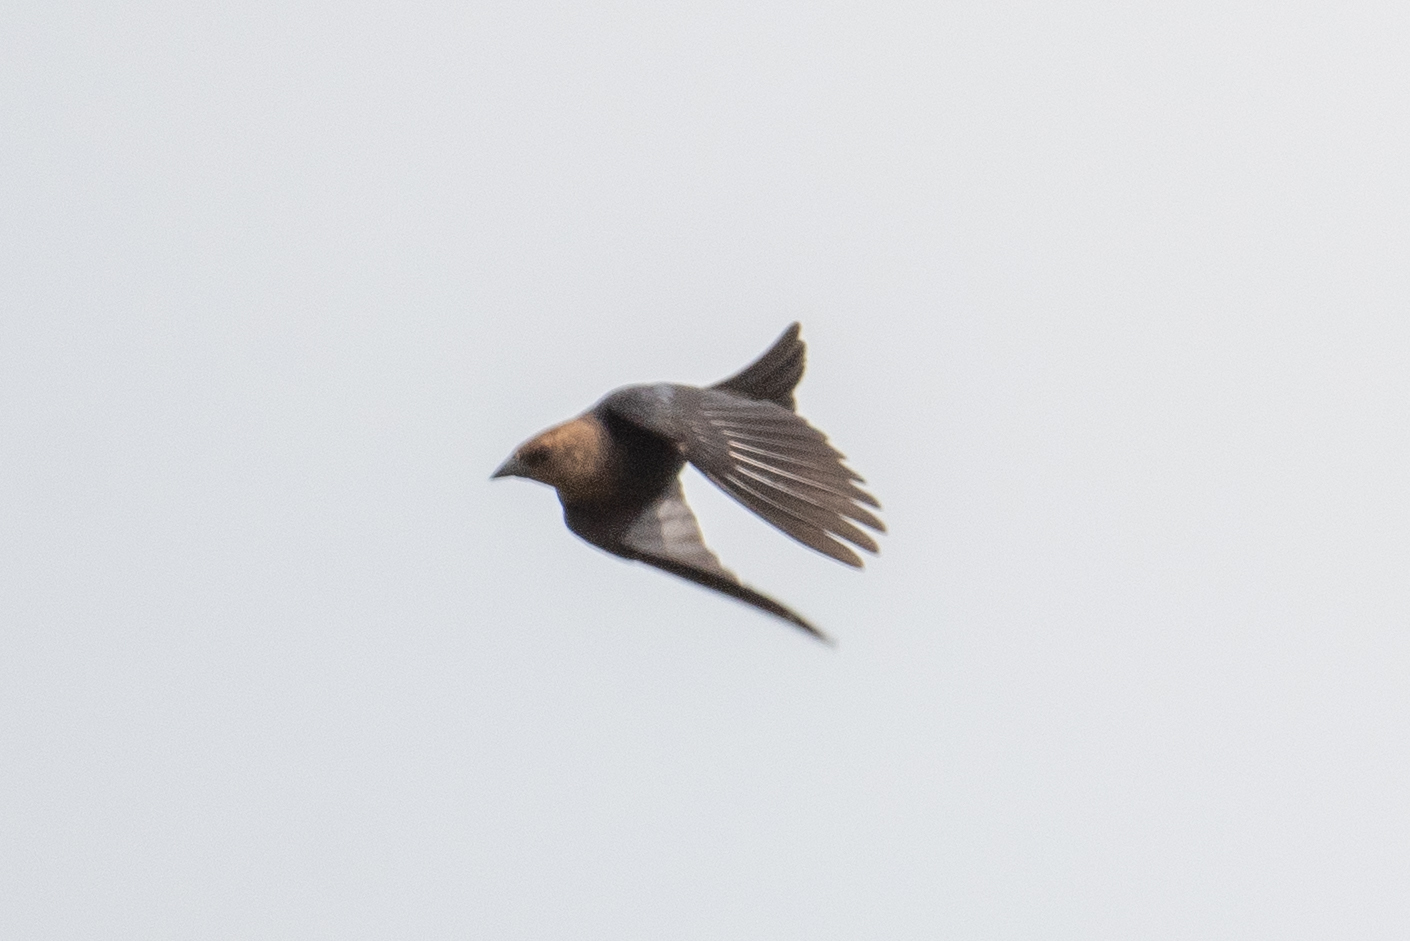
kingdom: Animalia
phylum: Chordata
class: Aves
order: Passeriformes
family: Icteridae
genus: Molothrus
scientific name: Molothrus ater
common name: Brown-headed cowbird
